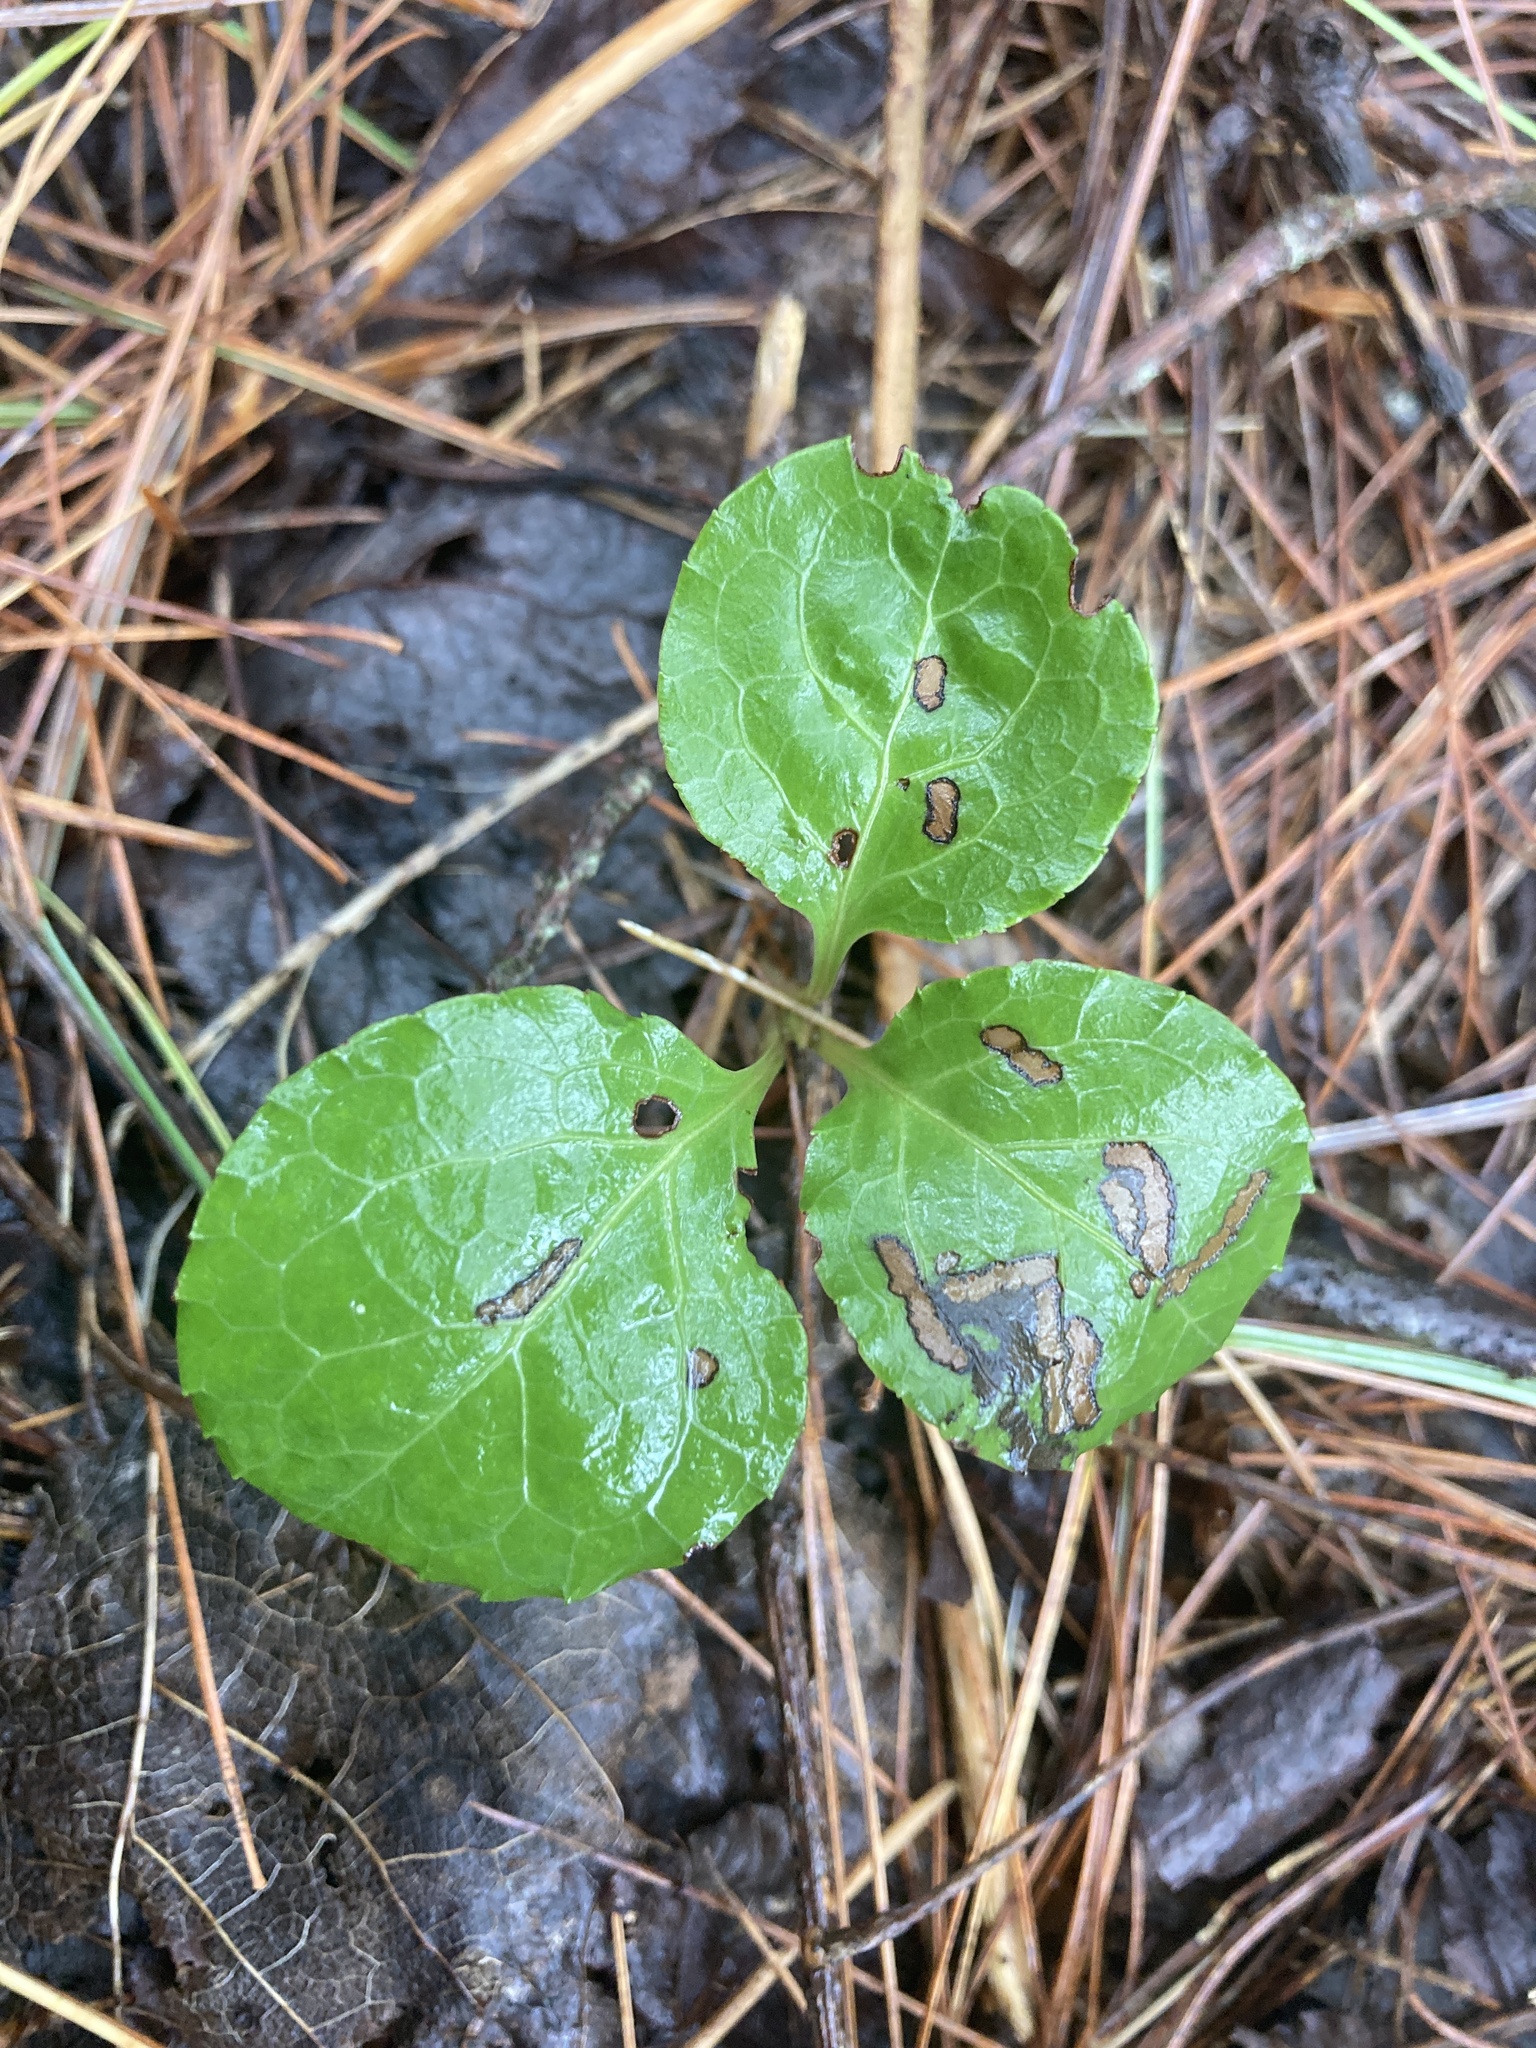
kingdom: Plantae
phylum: Tracheophyta
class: Magnoliopsida
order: Ericales
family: Ericaceae
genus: Pyrola
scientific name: Pyrola elliptica
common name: Shinleaf
